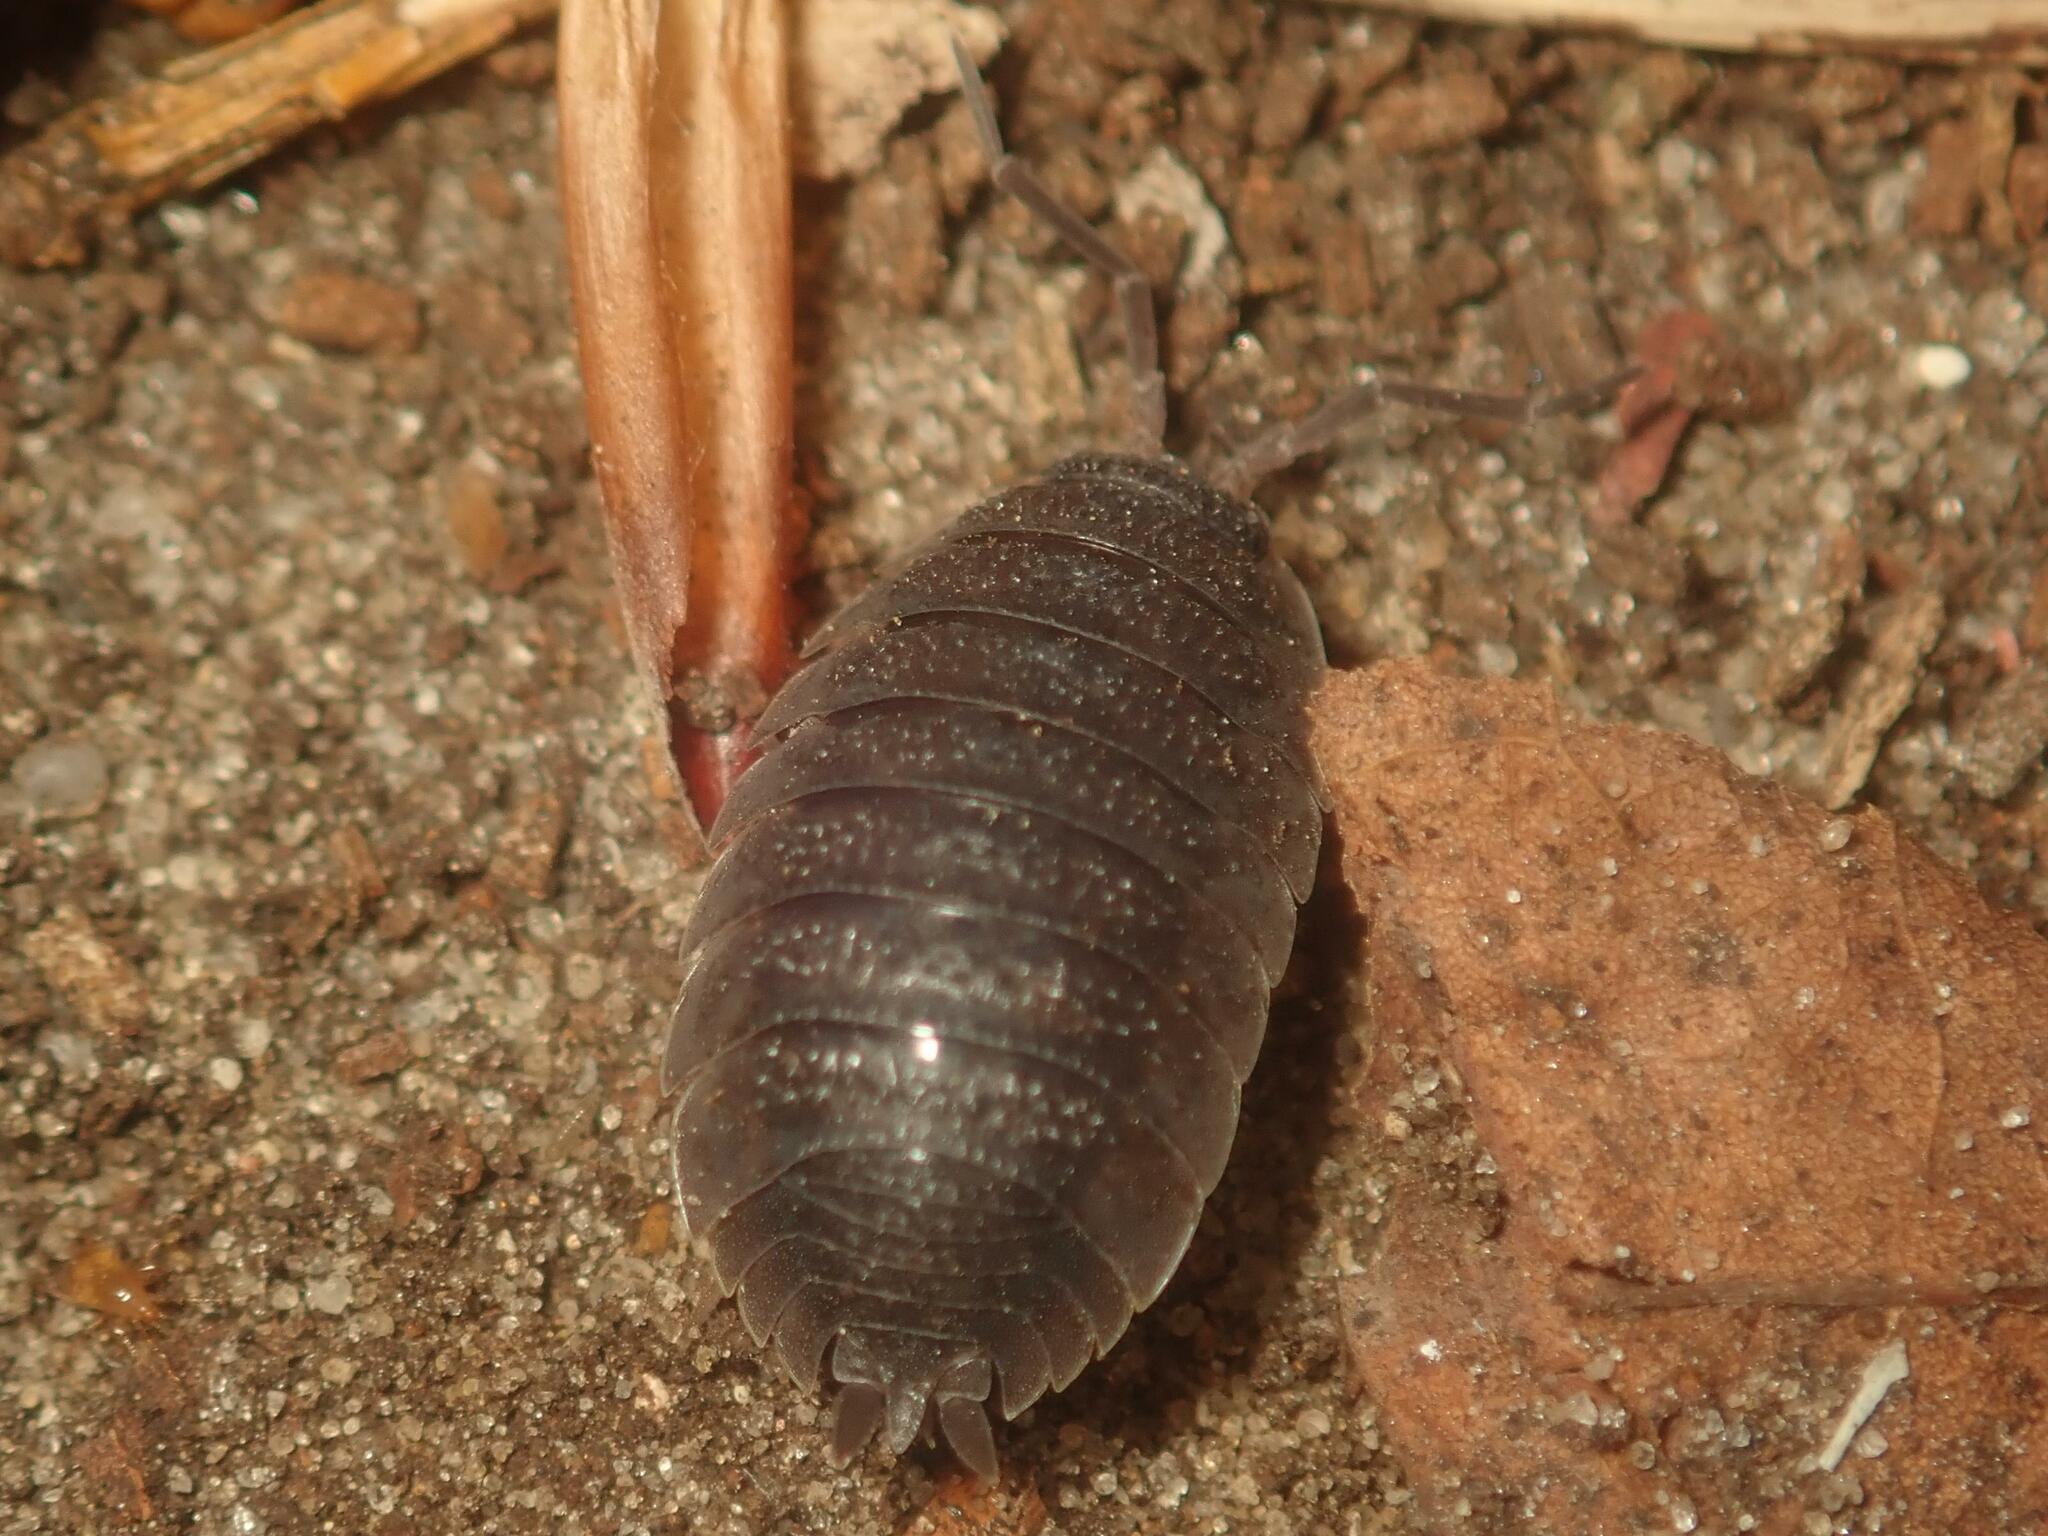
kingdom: Animalia
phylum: Arthropoda
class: Malacostraca
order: Isopoda
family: Porcellionidae
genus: Porcellio
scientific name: Porcellio scaber
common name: Common rough woodlouse
